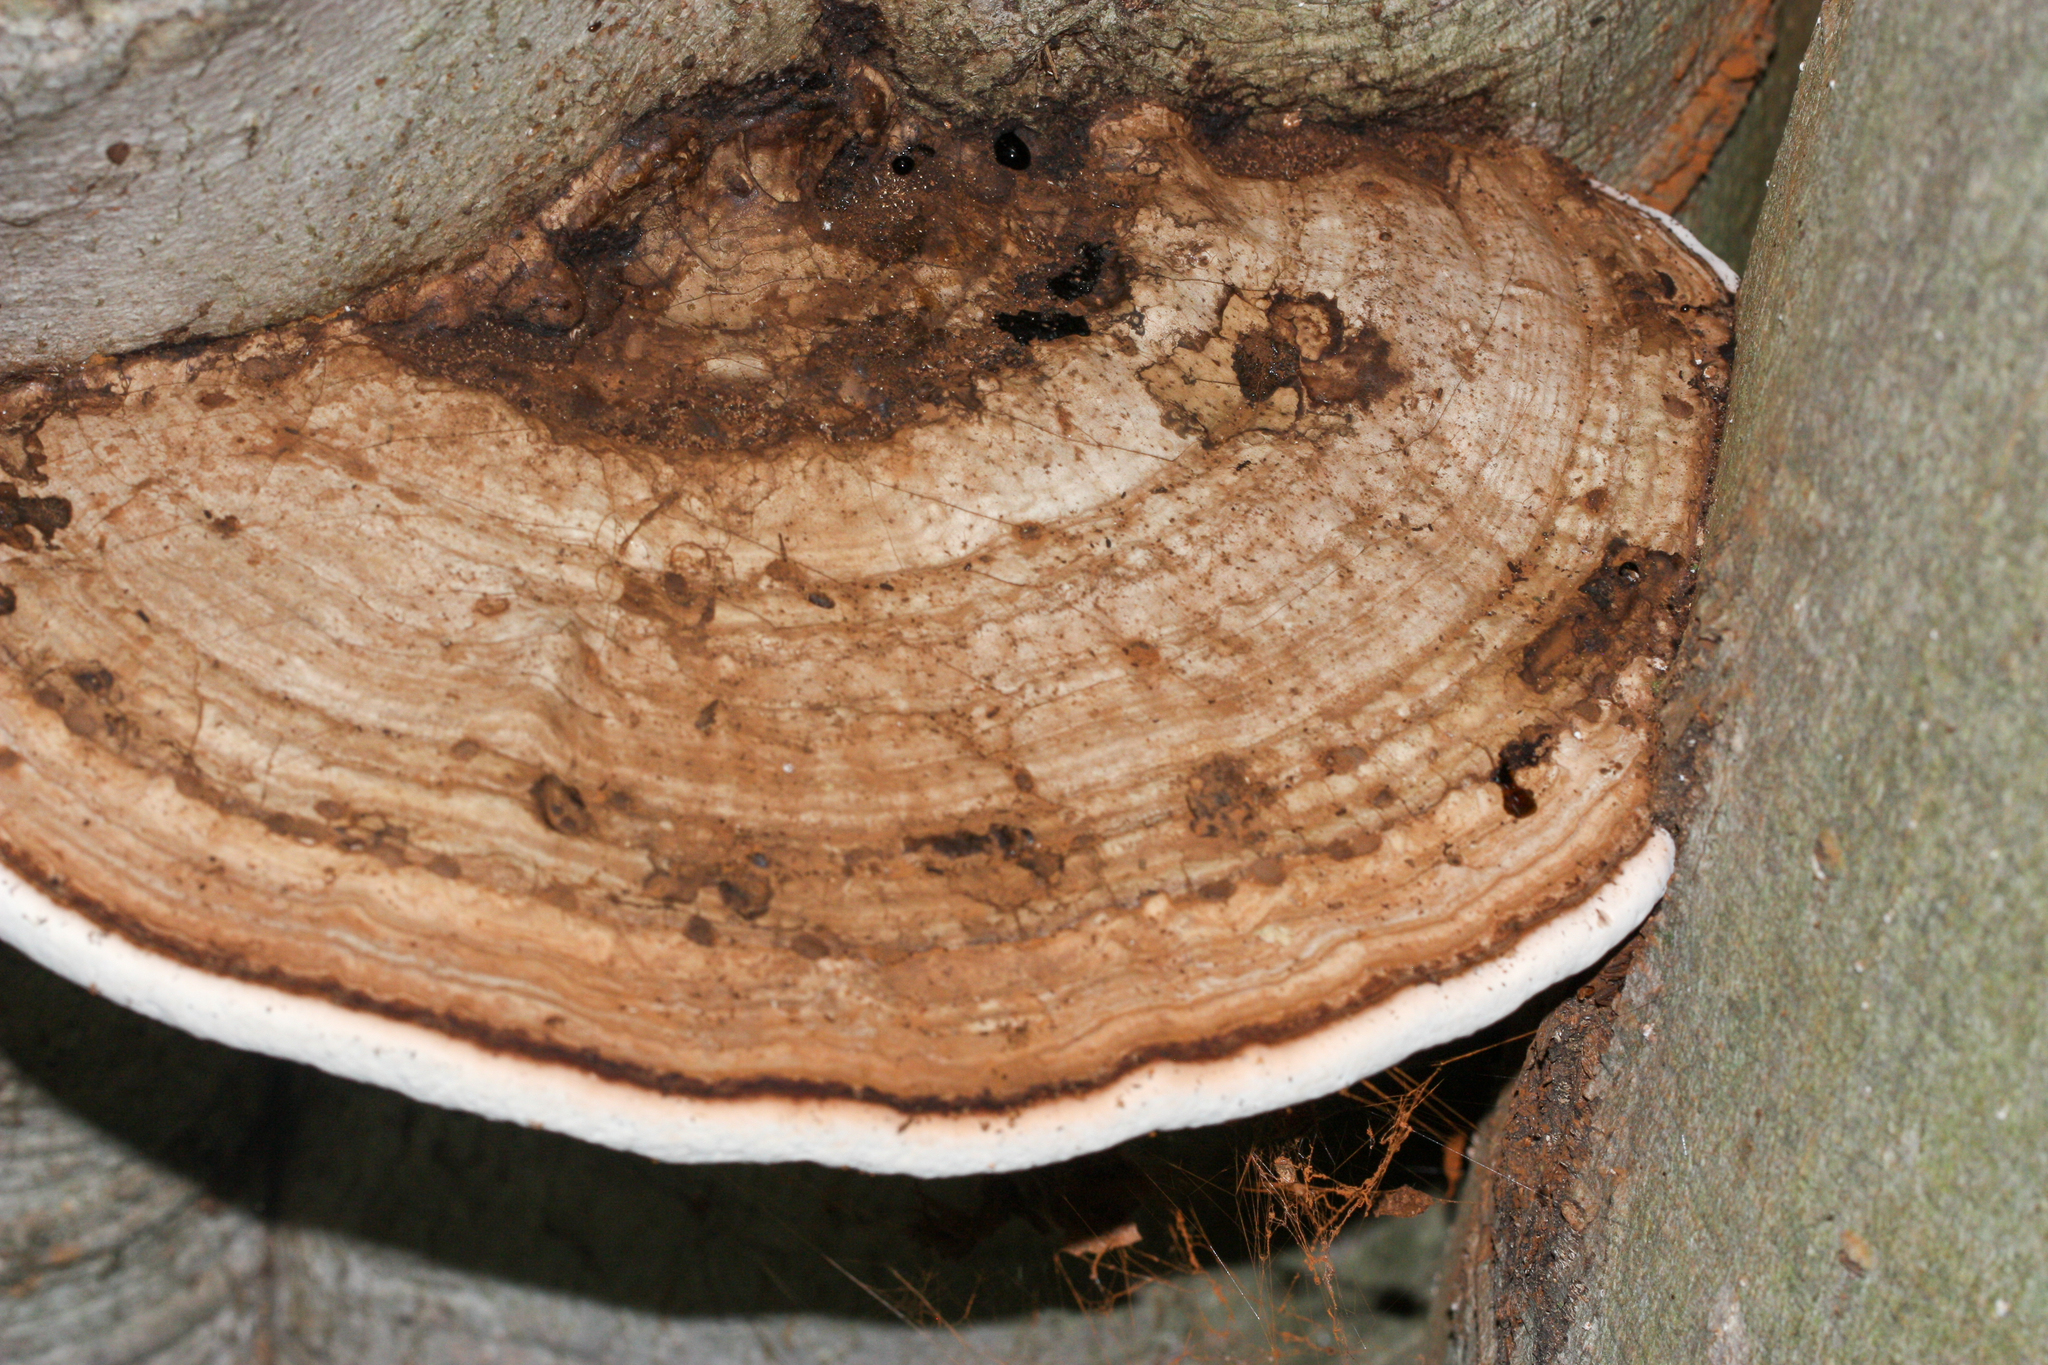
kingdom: Fungi
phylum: Basidiomycota
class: Agaricomycetes
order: Polyporales
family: Polyporaceae
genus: Ganoderma
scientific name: Ganoderma applanatum
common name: Artist's bracket
